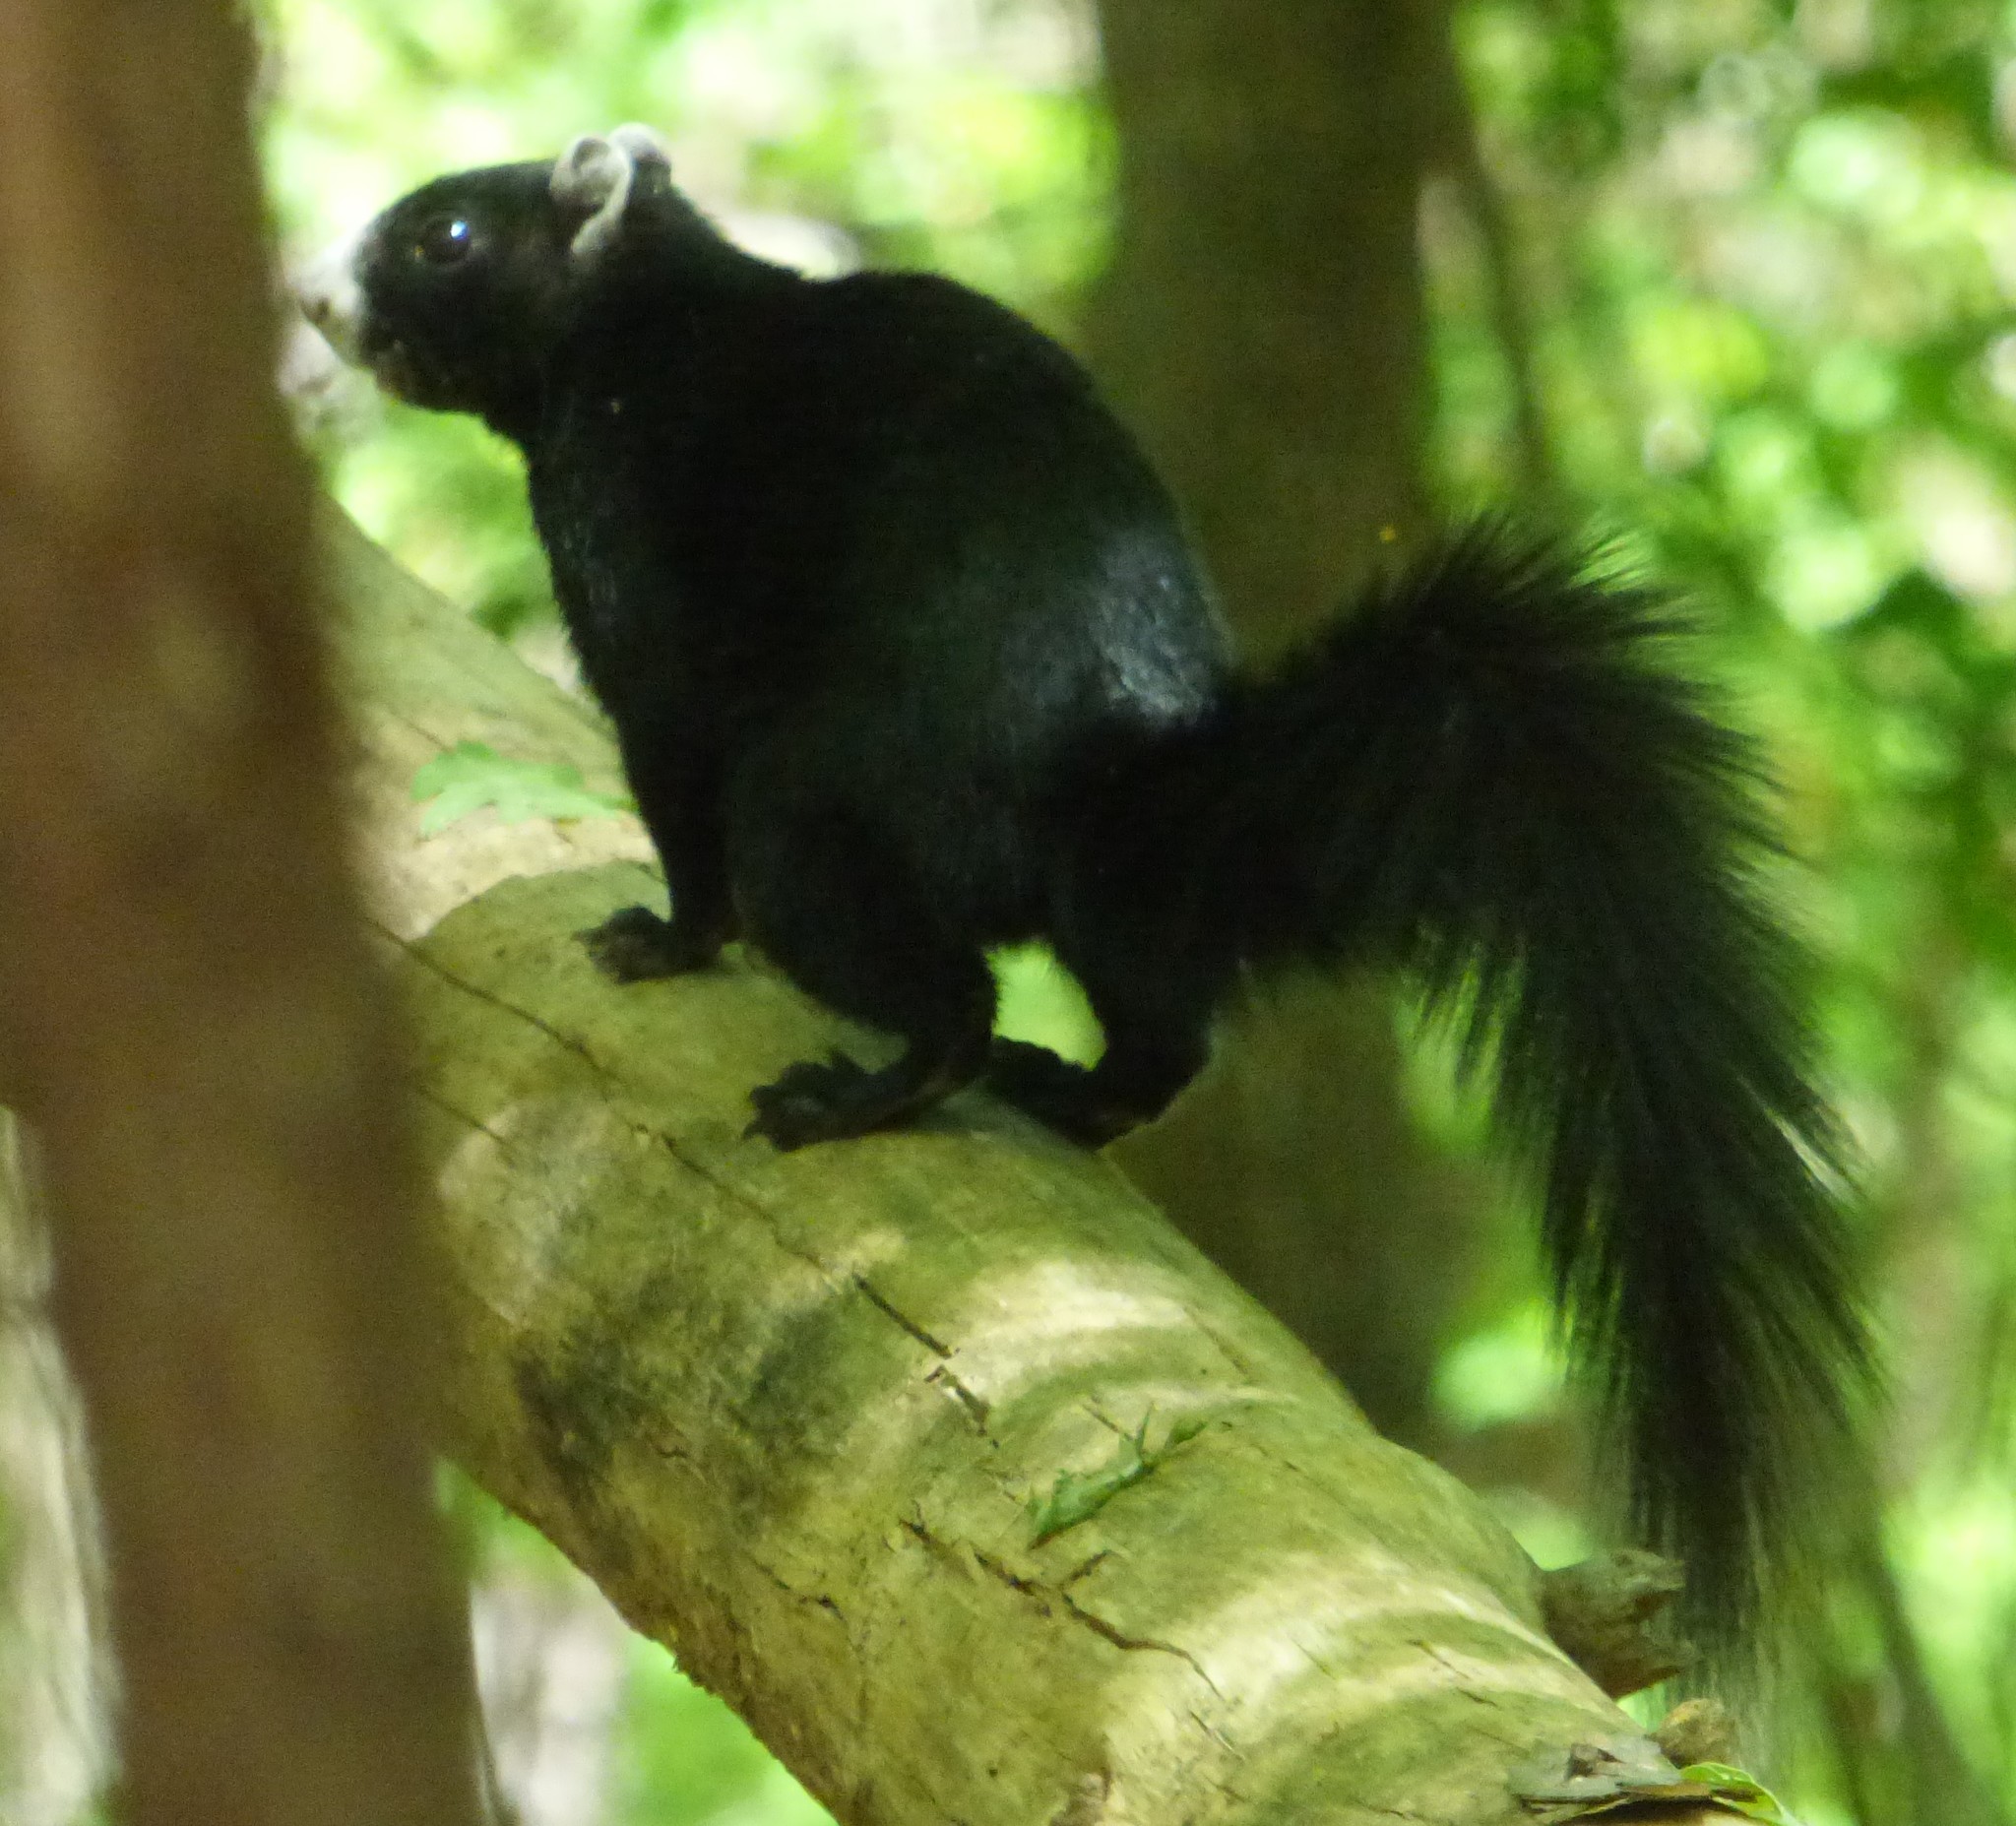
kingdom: Animalia
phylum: Chordata
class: Mammalia
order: Rodentia
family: Sciuridae
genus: Sciurus
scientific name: Sciurus niger
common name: Fox squirrel
